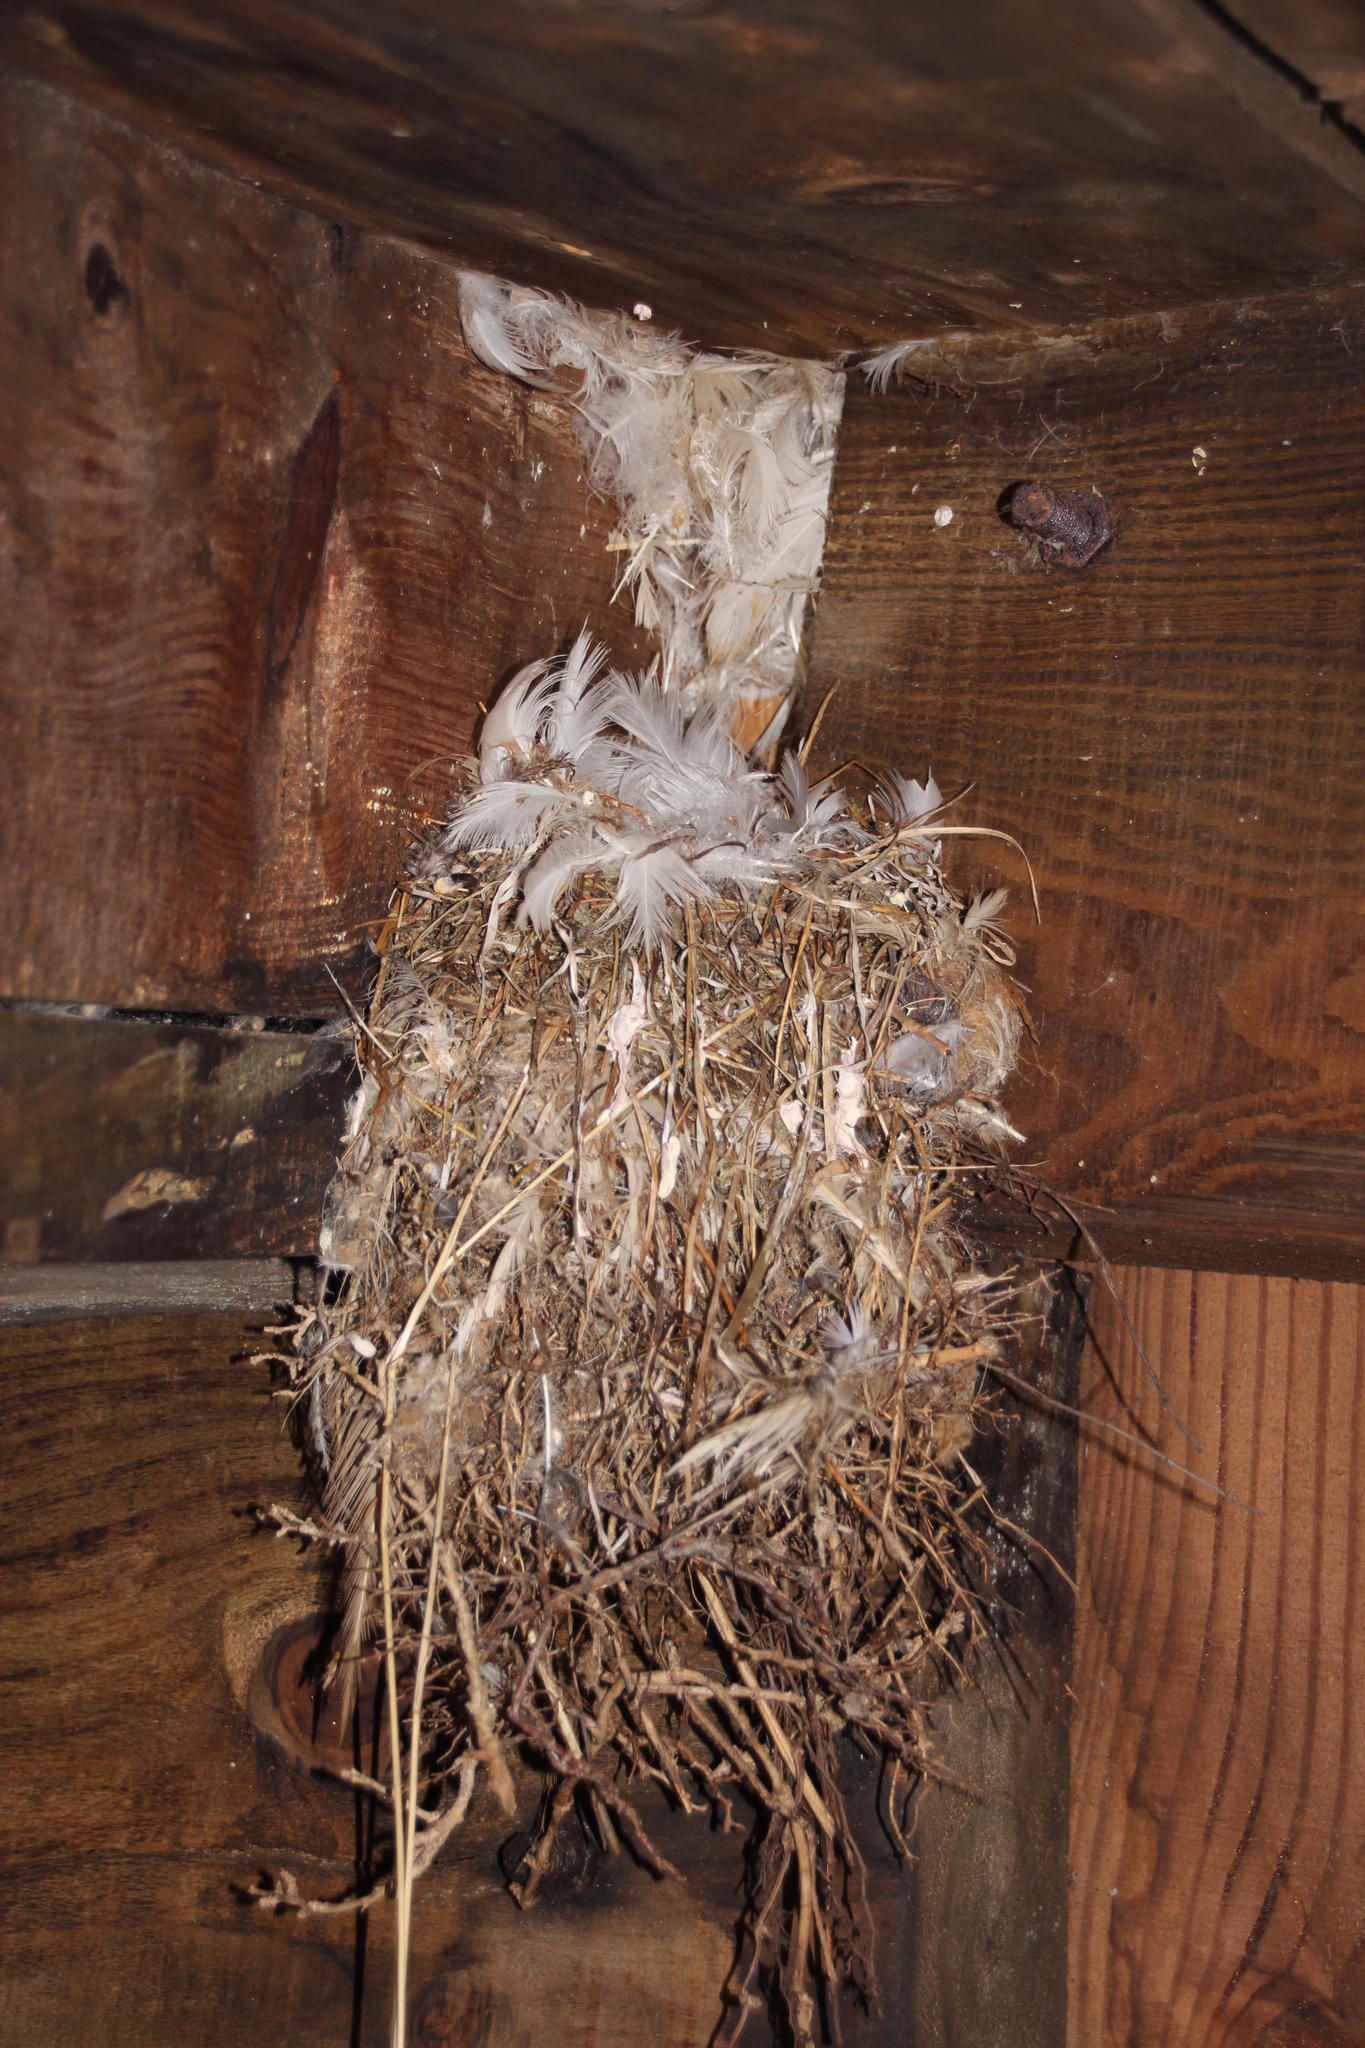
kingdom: Animalia
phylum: Chordata
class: Aves
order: Passeriformes
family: Hirundinidae
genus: Hirundo
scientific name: Hirundo albigularis
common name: White-throated swallow
